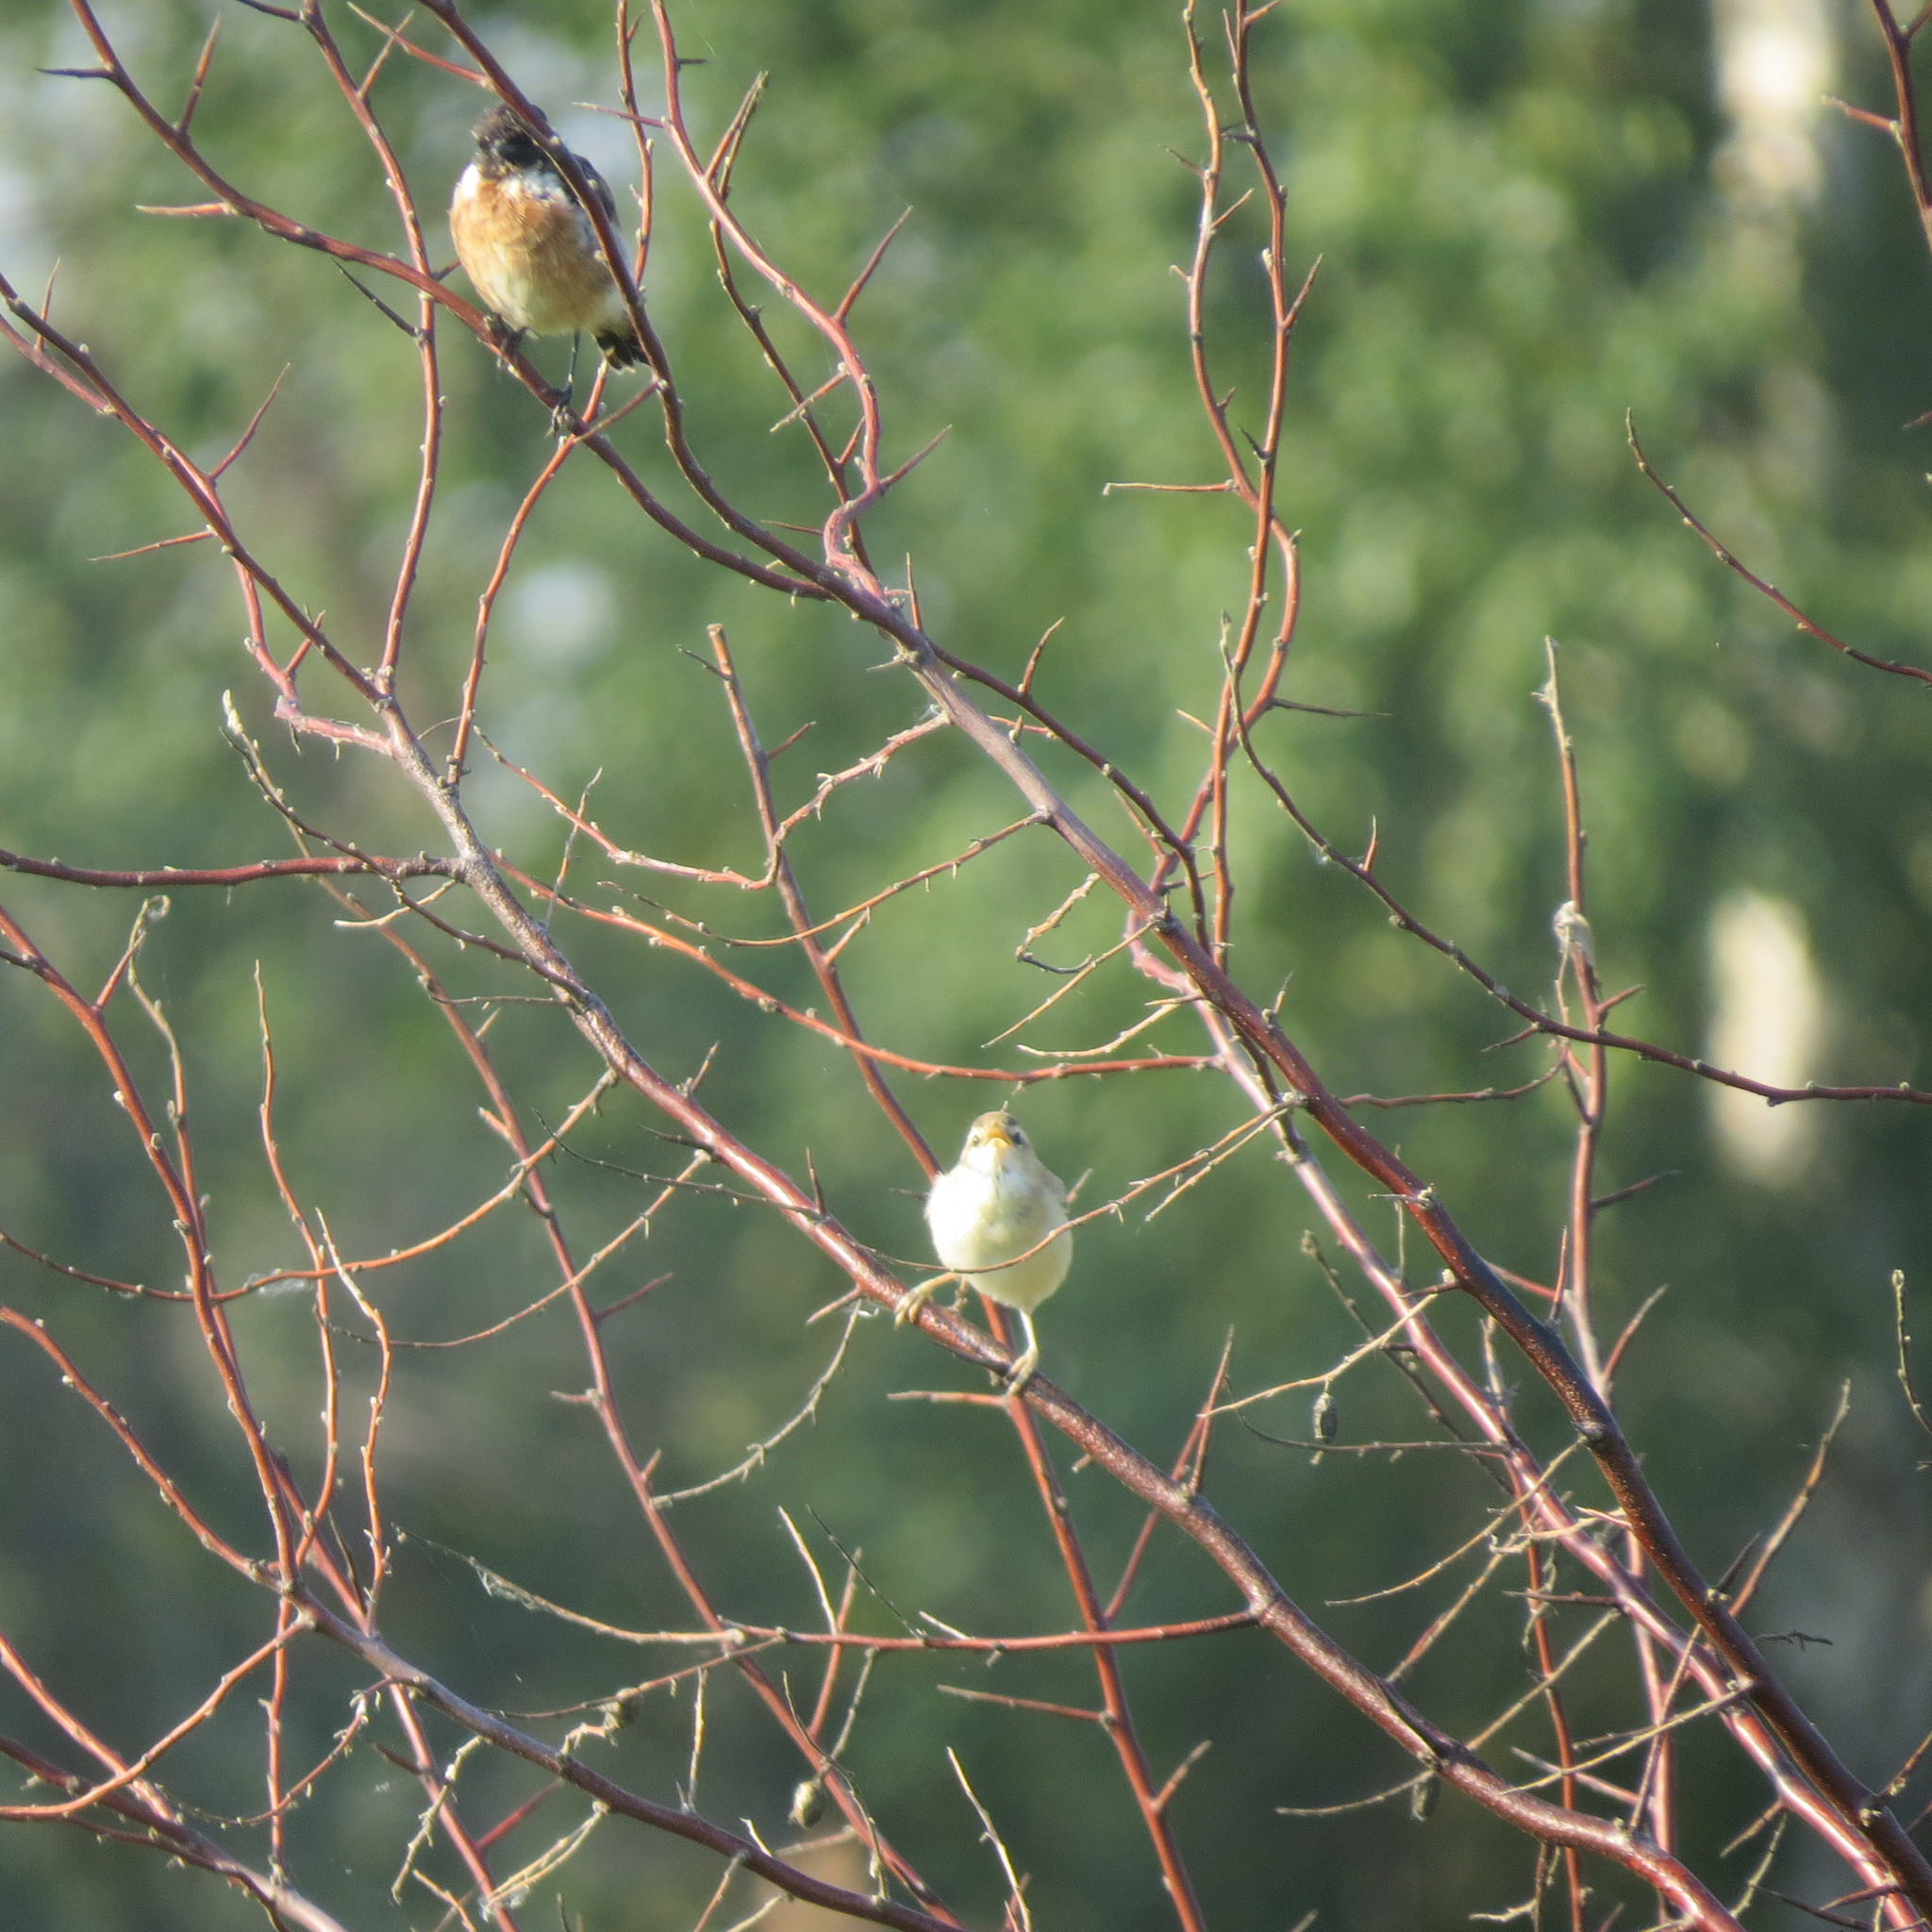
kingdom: Animalia
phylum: Chordata
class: Aves
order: Passeriformes
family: Muscicapidae
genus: Saxicola
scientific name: Saxicola maurus
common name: Siberian stonechat
